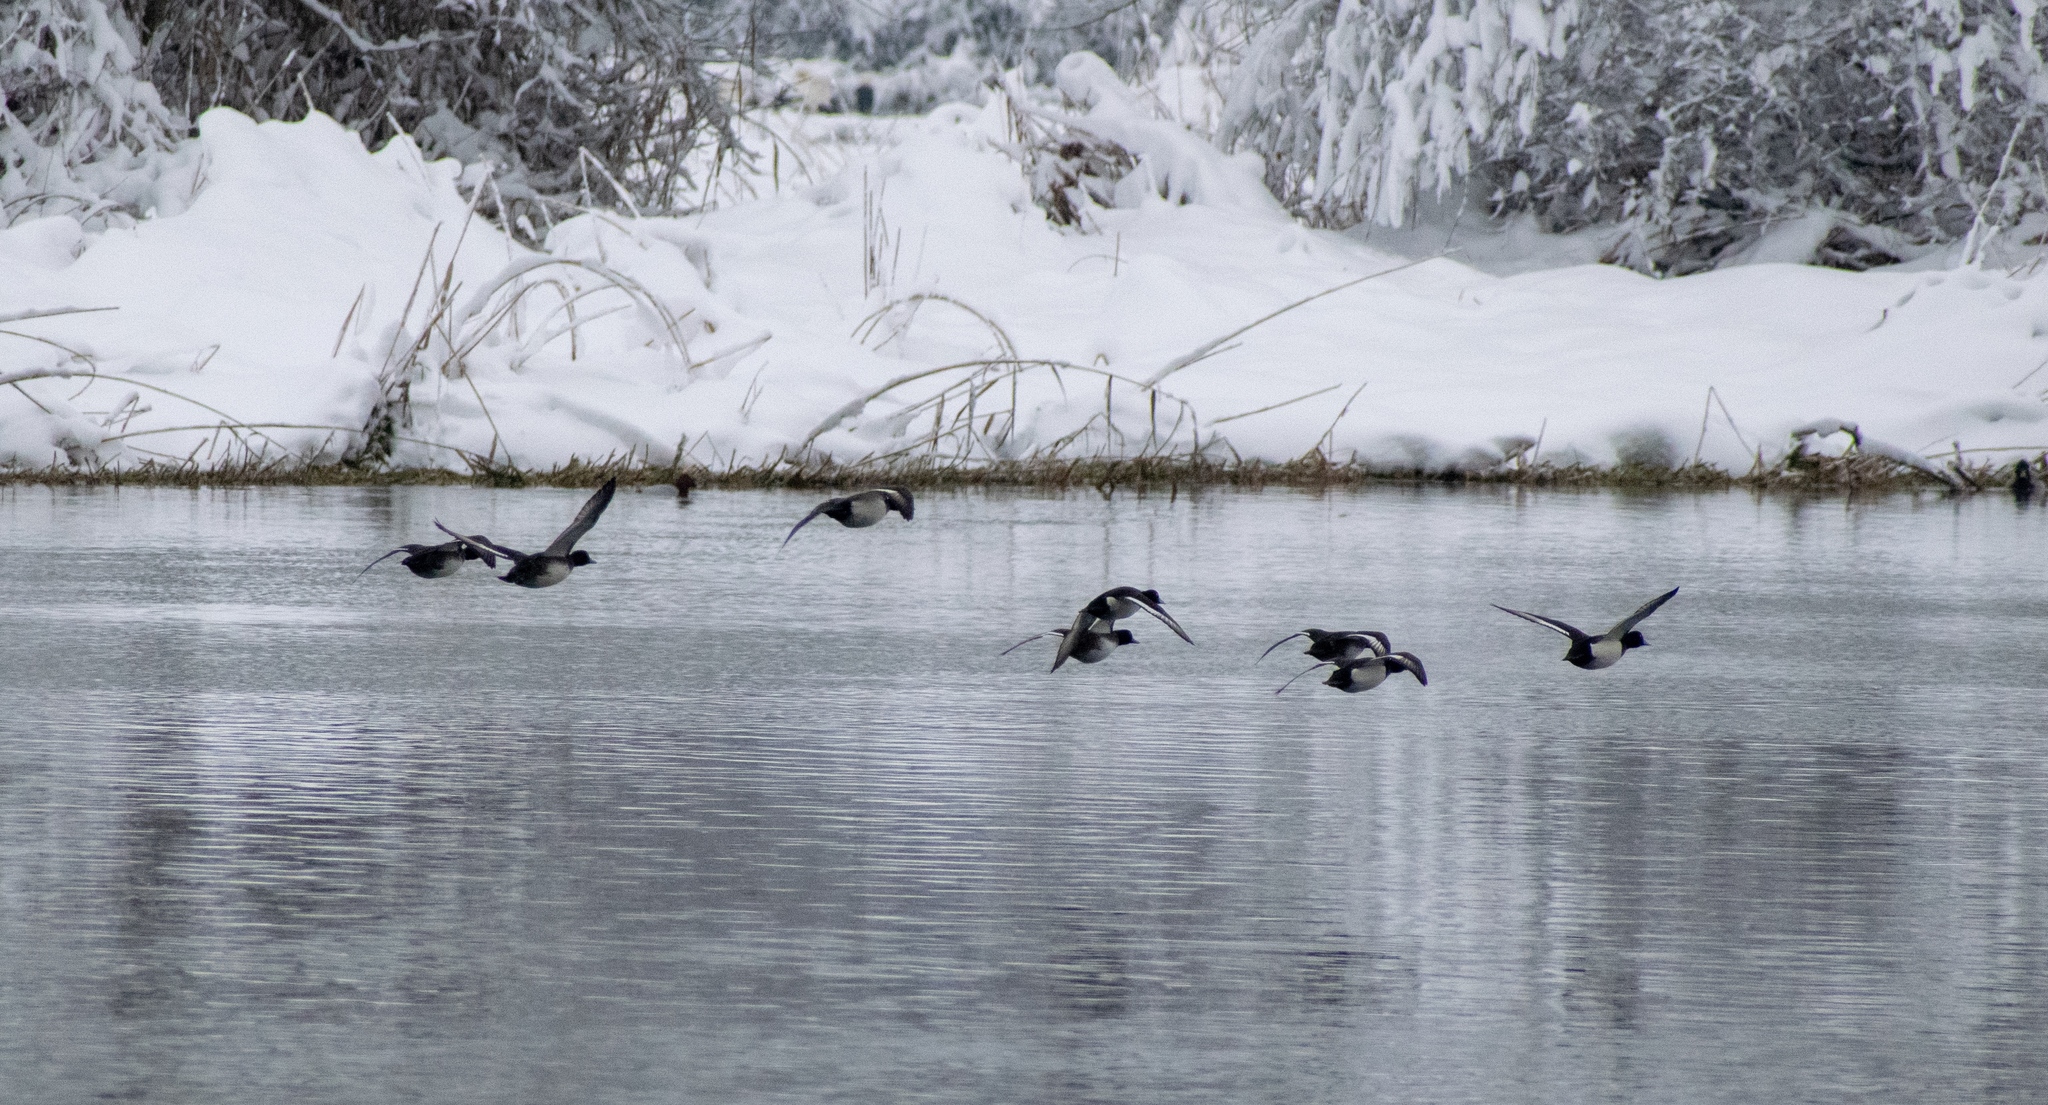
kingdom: Animalia
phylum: Chordata
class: Aves
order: Anseriformes
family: Anatidae
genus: Aythya
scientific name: Aythya fuligula
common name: Tufted duck
